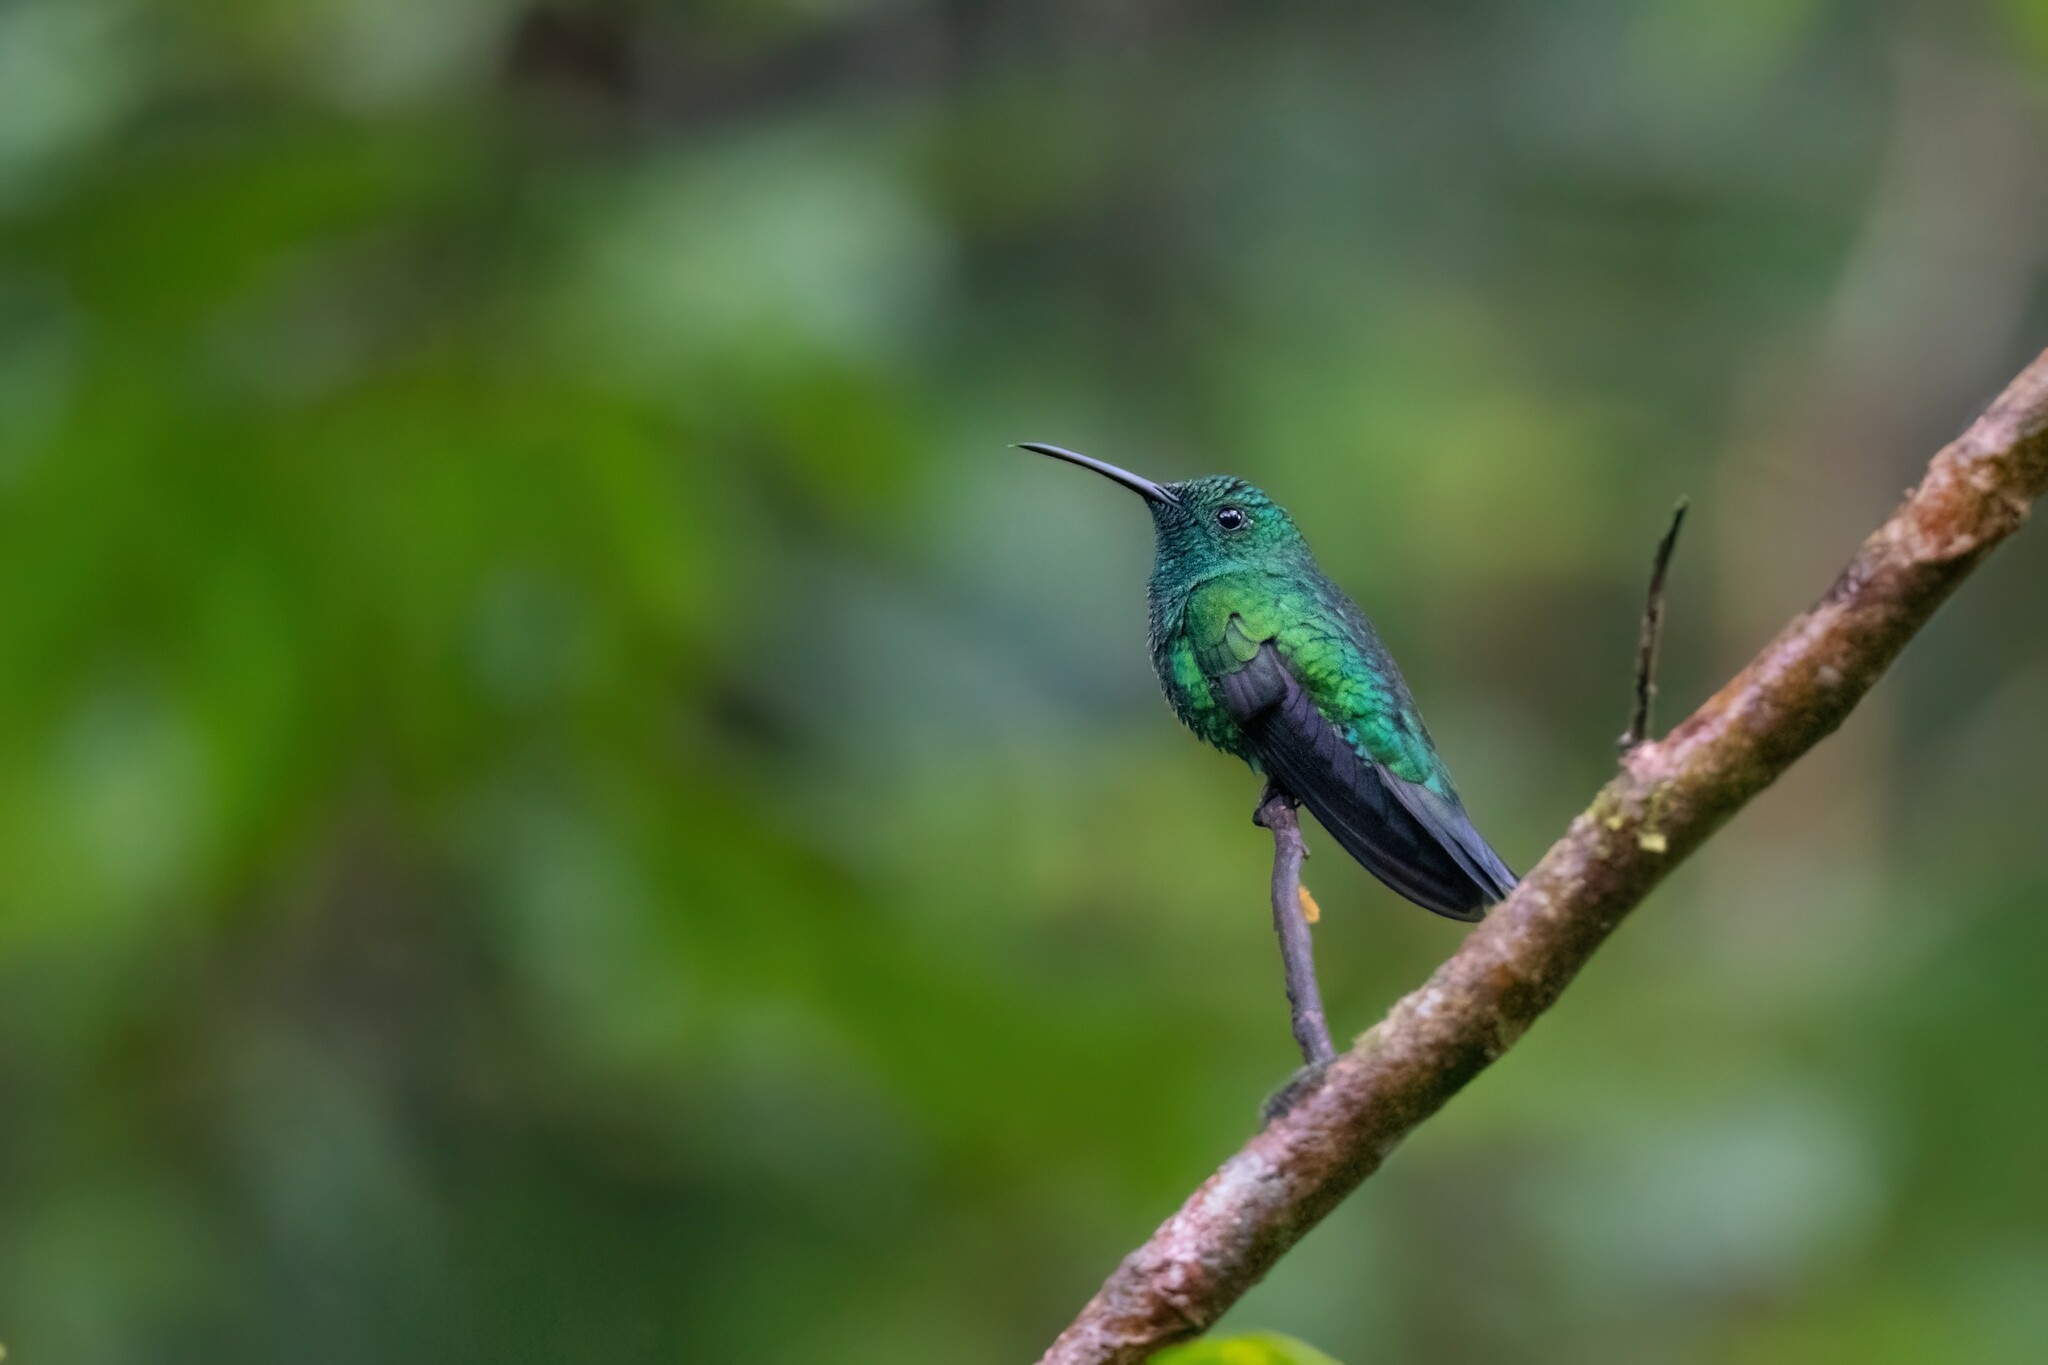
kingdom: Animalia
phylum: Chordata
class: Aves
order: Apodiformes
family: Trochilidae
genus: Anthracothorax
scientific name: Anthracothorax viridis
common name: Green mango
